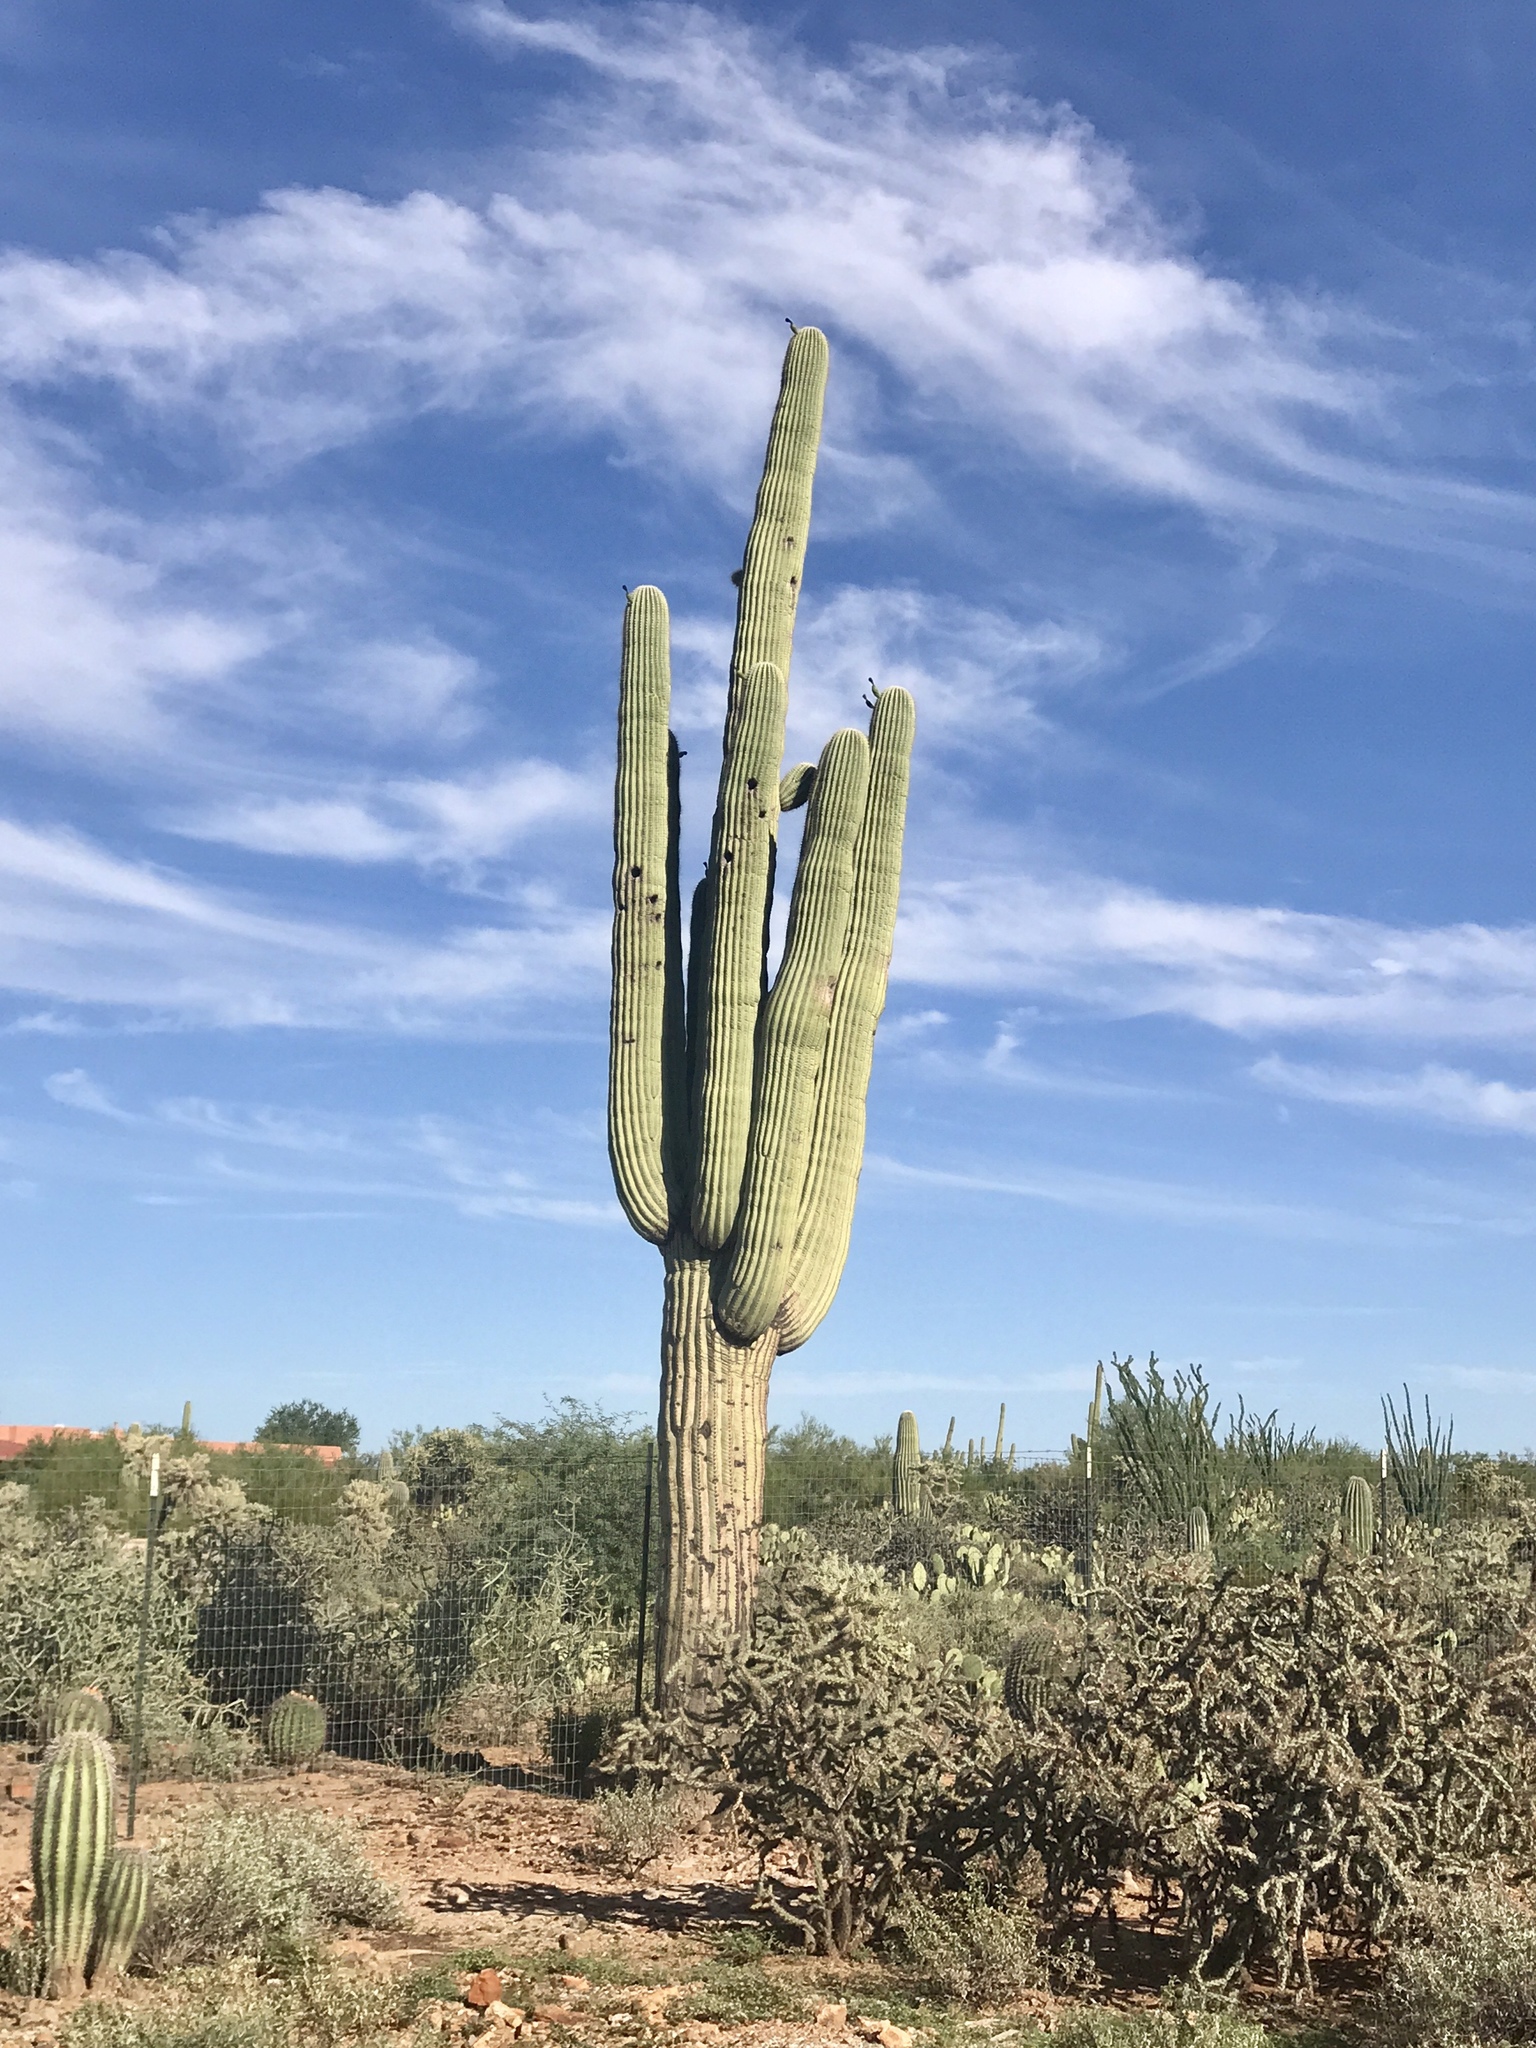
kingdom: Plantae
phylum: Tracheophyta
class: Magnoliopsida
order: Caryophyllales
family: Cactaceae
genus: Carnegiea
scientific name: Carnegiea gigantea
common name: Saguaro
